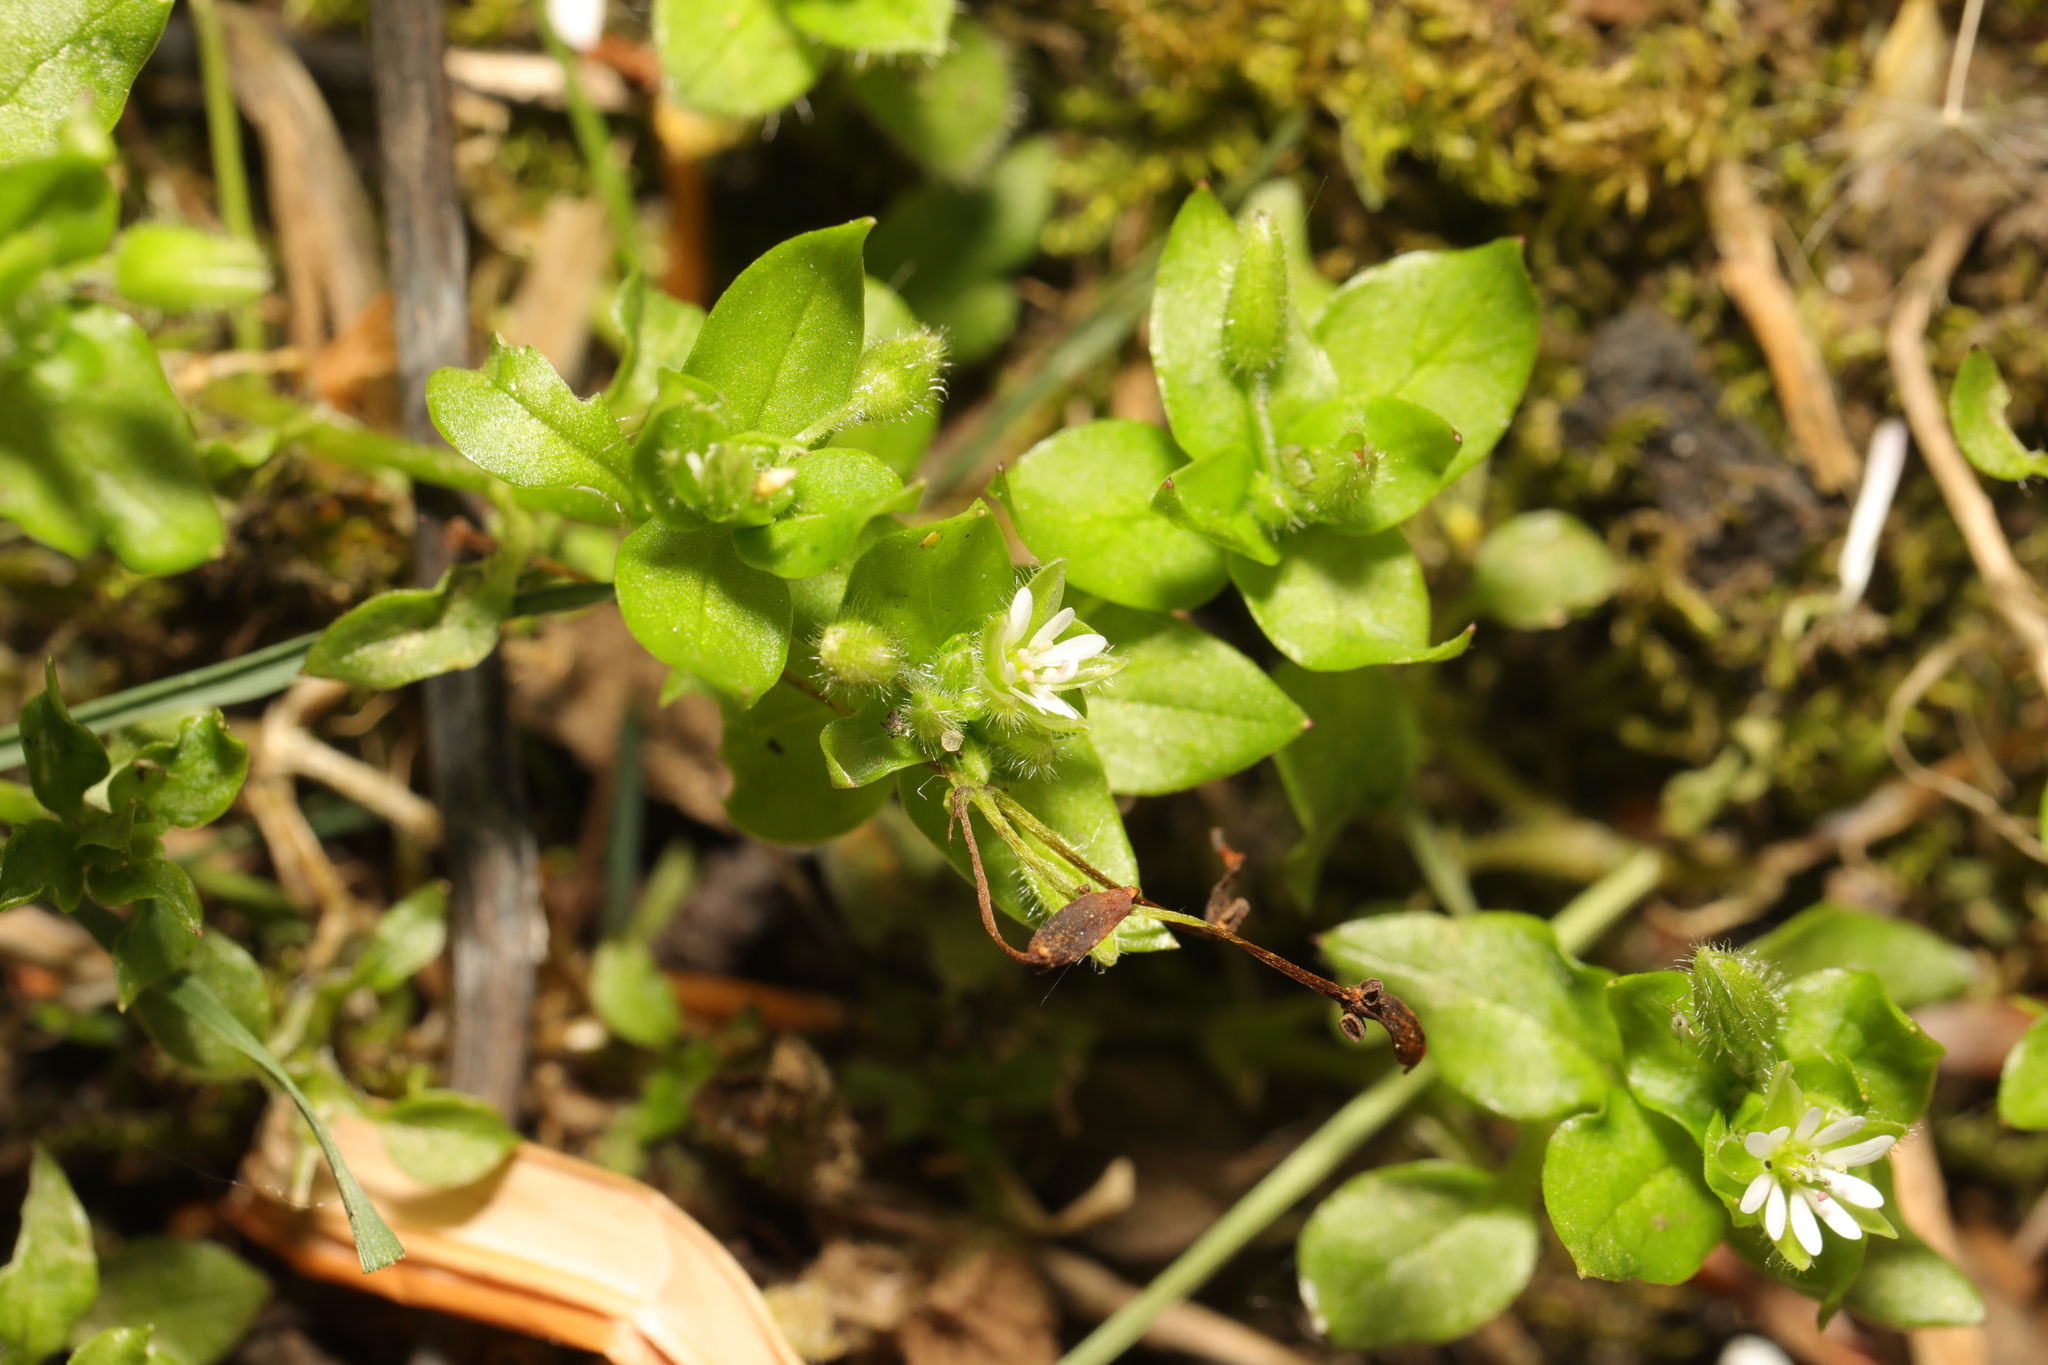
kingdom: Plantae
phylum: Tracheophyta
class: Magnoliopsida
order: Caryophyllales
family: Caryophyllaceae
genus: Stellaria
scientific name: Stellaria media
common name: Common chickweed
